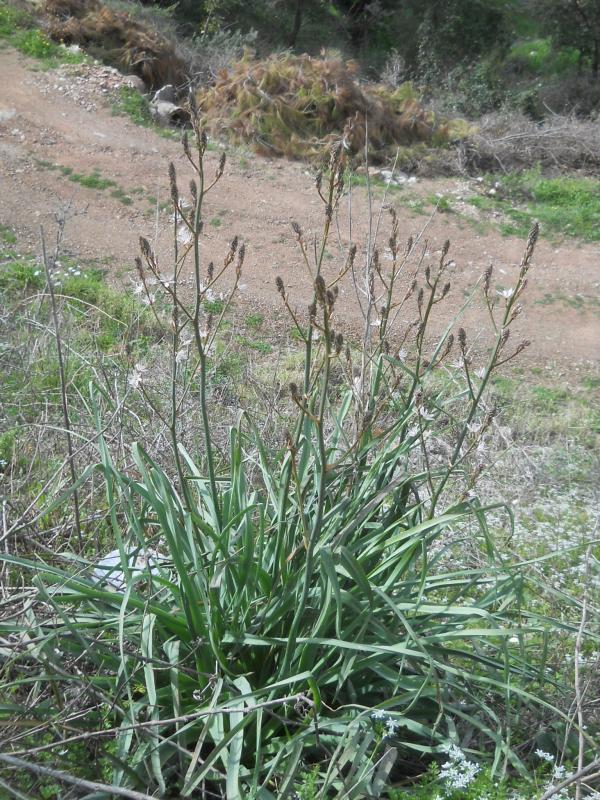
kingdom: Plantae
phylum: Tracheophyta
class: Liliopsida
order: Asparagales
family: Asphodelaceae
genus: Asphodelus
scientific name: Asphodelus ramosus
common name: Silverrod
